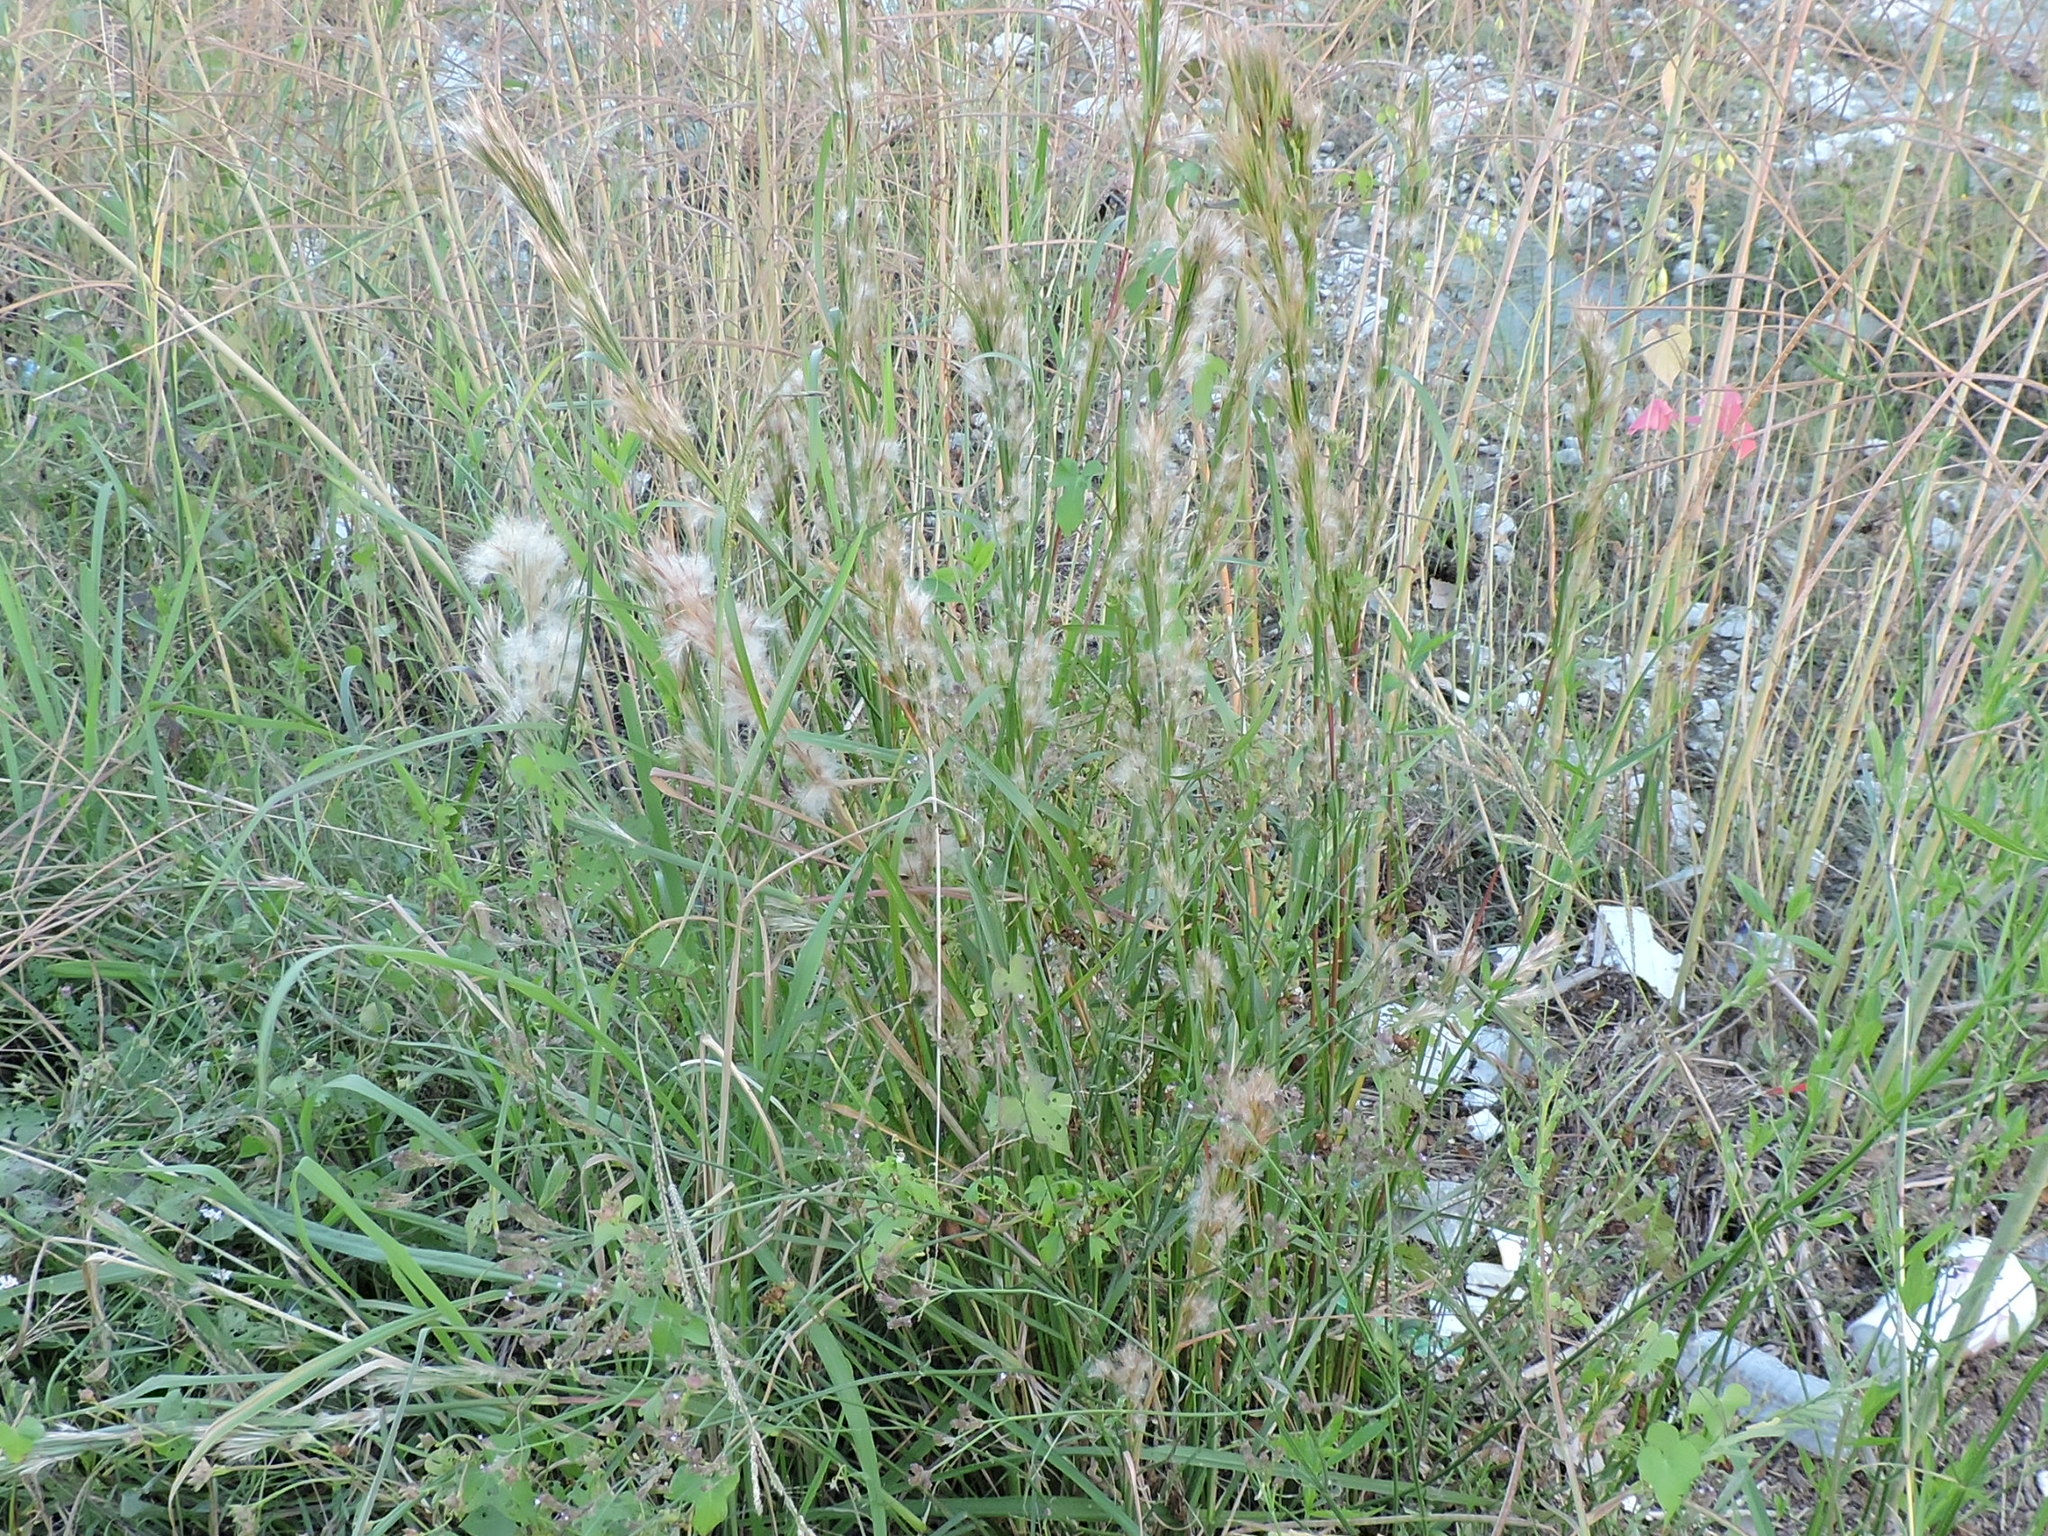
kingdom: Plantae
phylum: Tracheophyta
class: Liliopsida
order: Poales
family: Poaceae
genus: Andropogon
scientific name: Andropogon tenuispatheus
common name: Bushy bluestem
